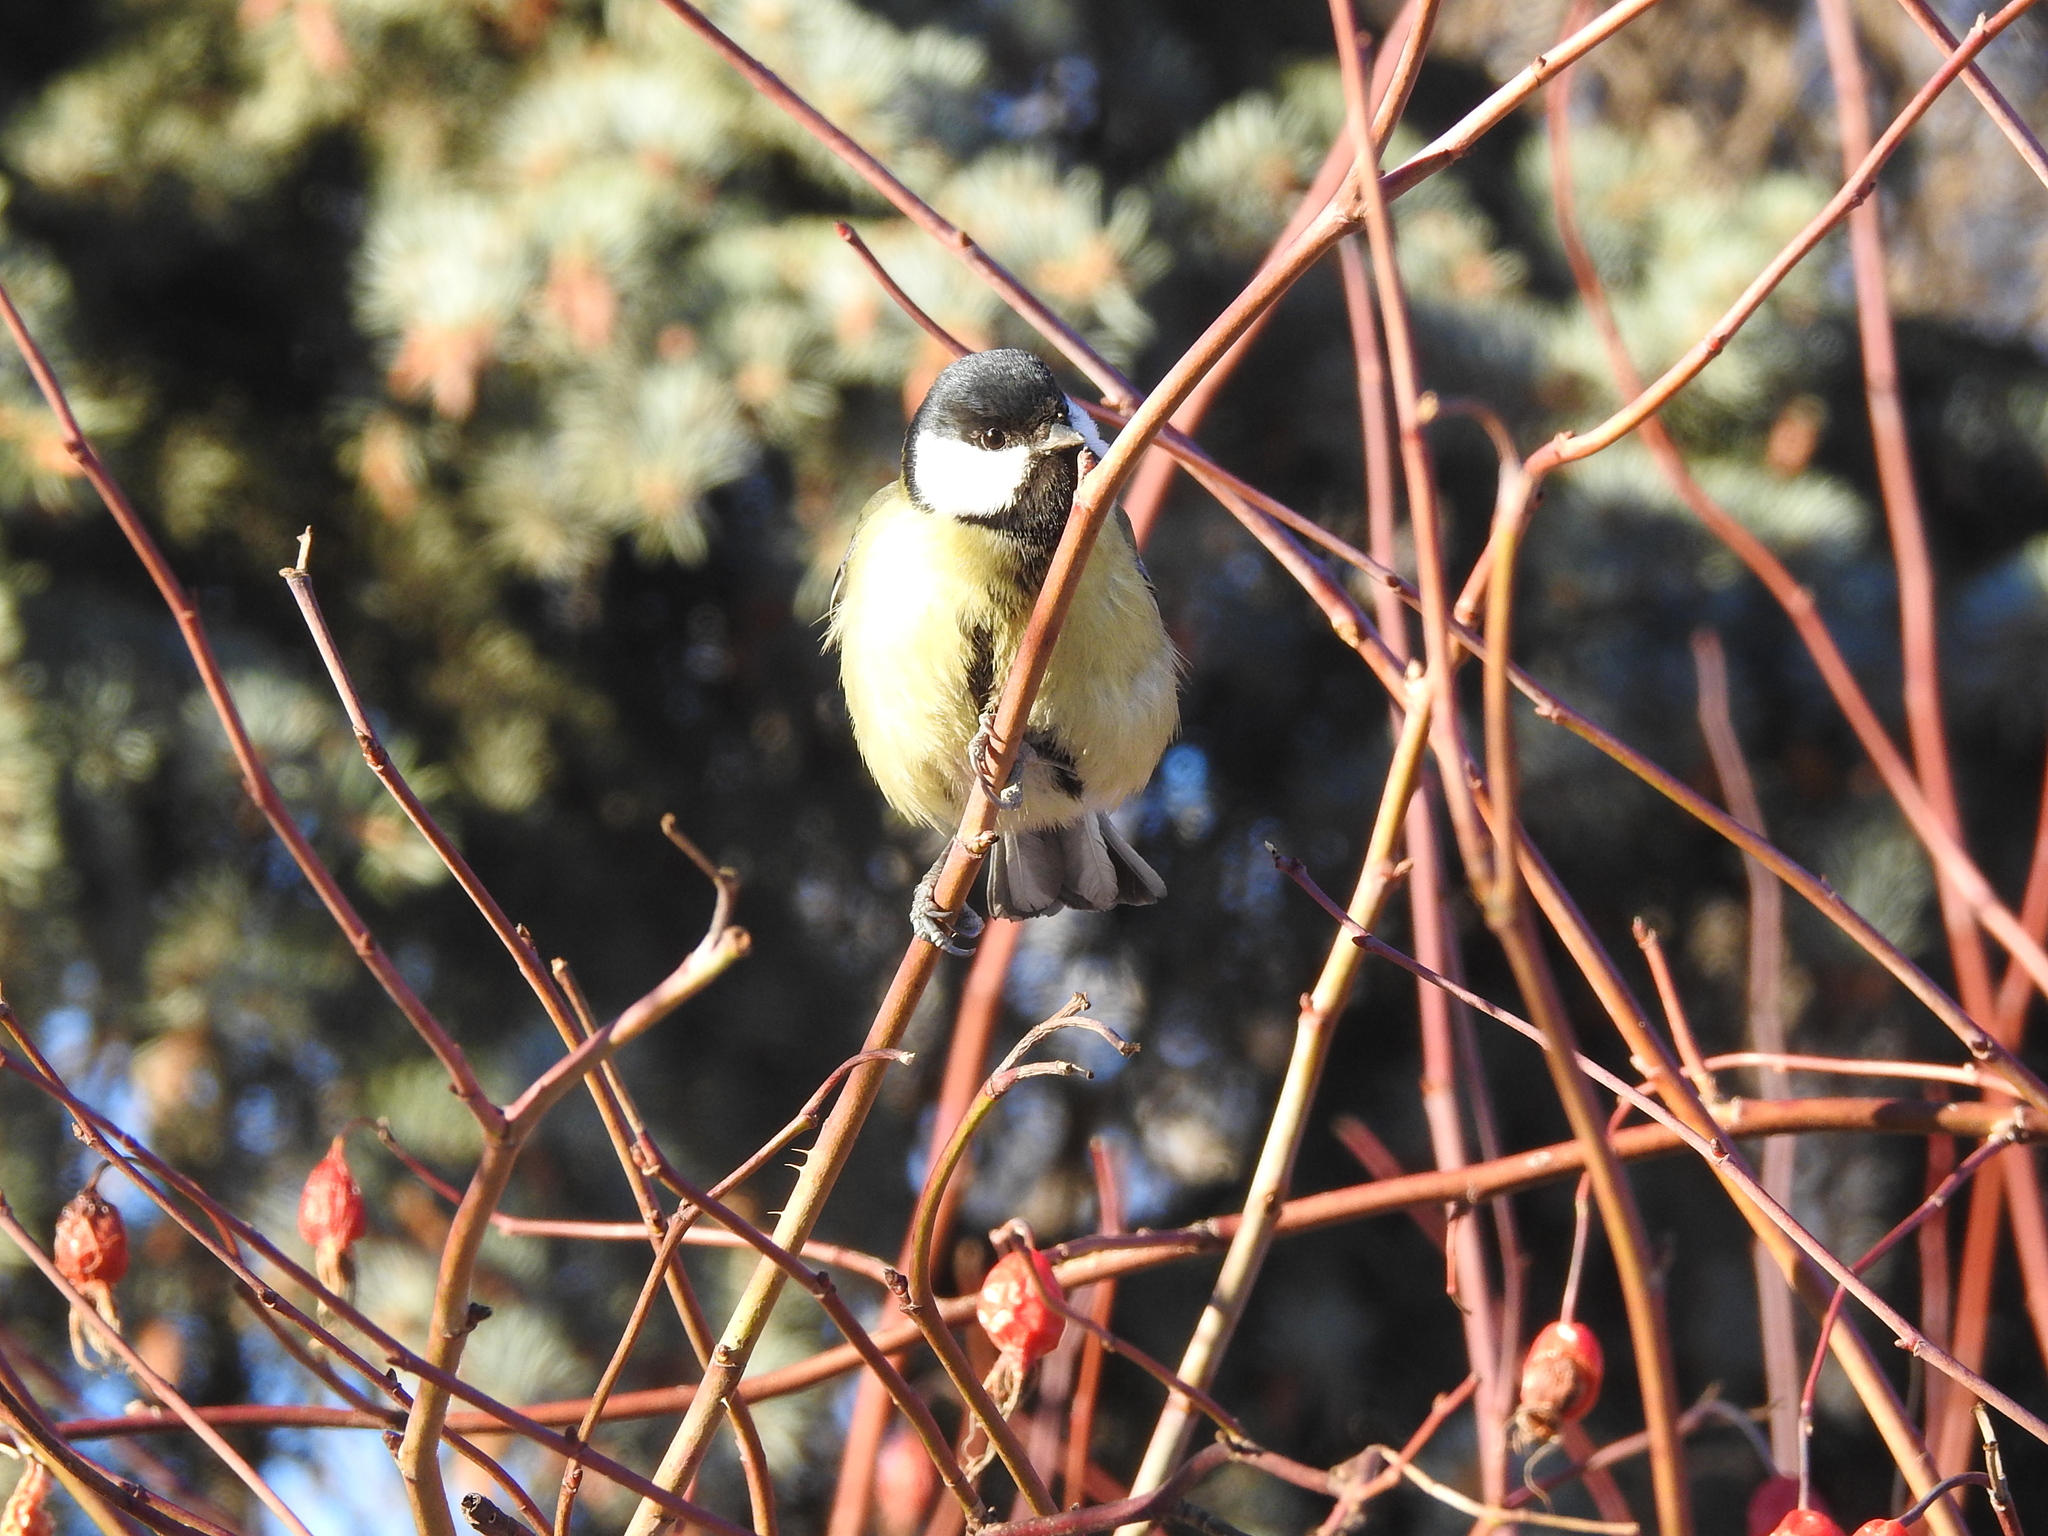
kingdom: Animalia
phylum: Chordata
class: Aves
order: Passeriformes
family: Paridae
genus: Parus
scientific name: Parus major
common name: Great tit
